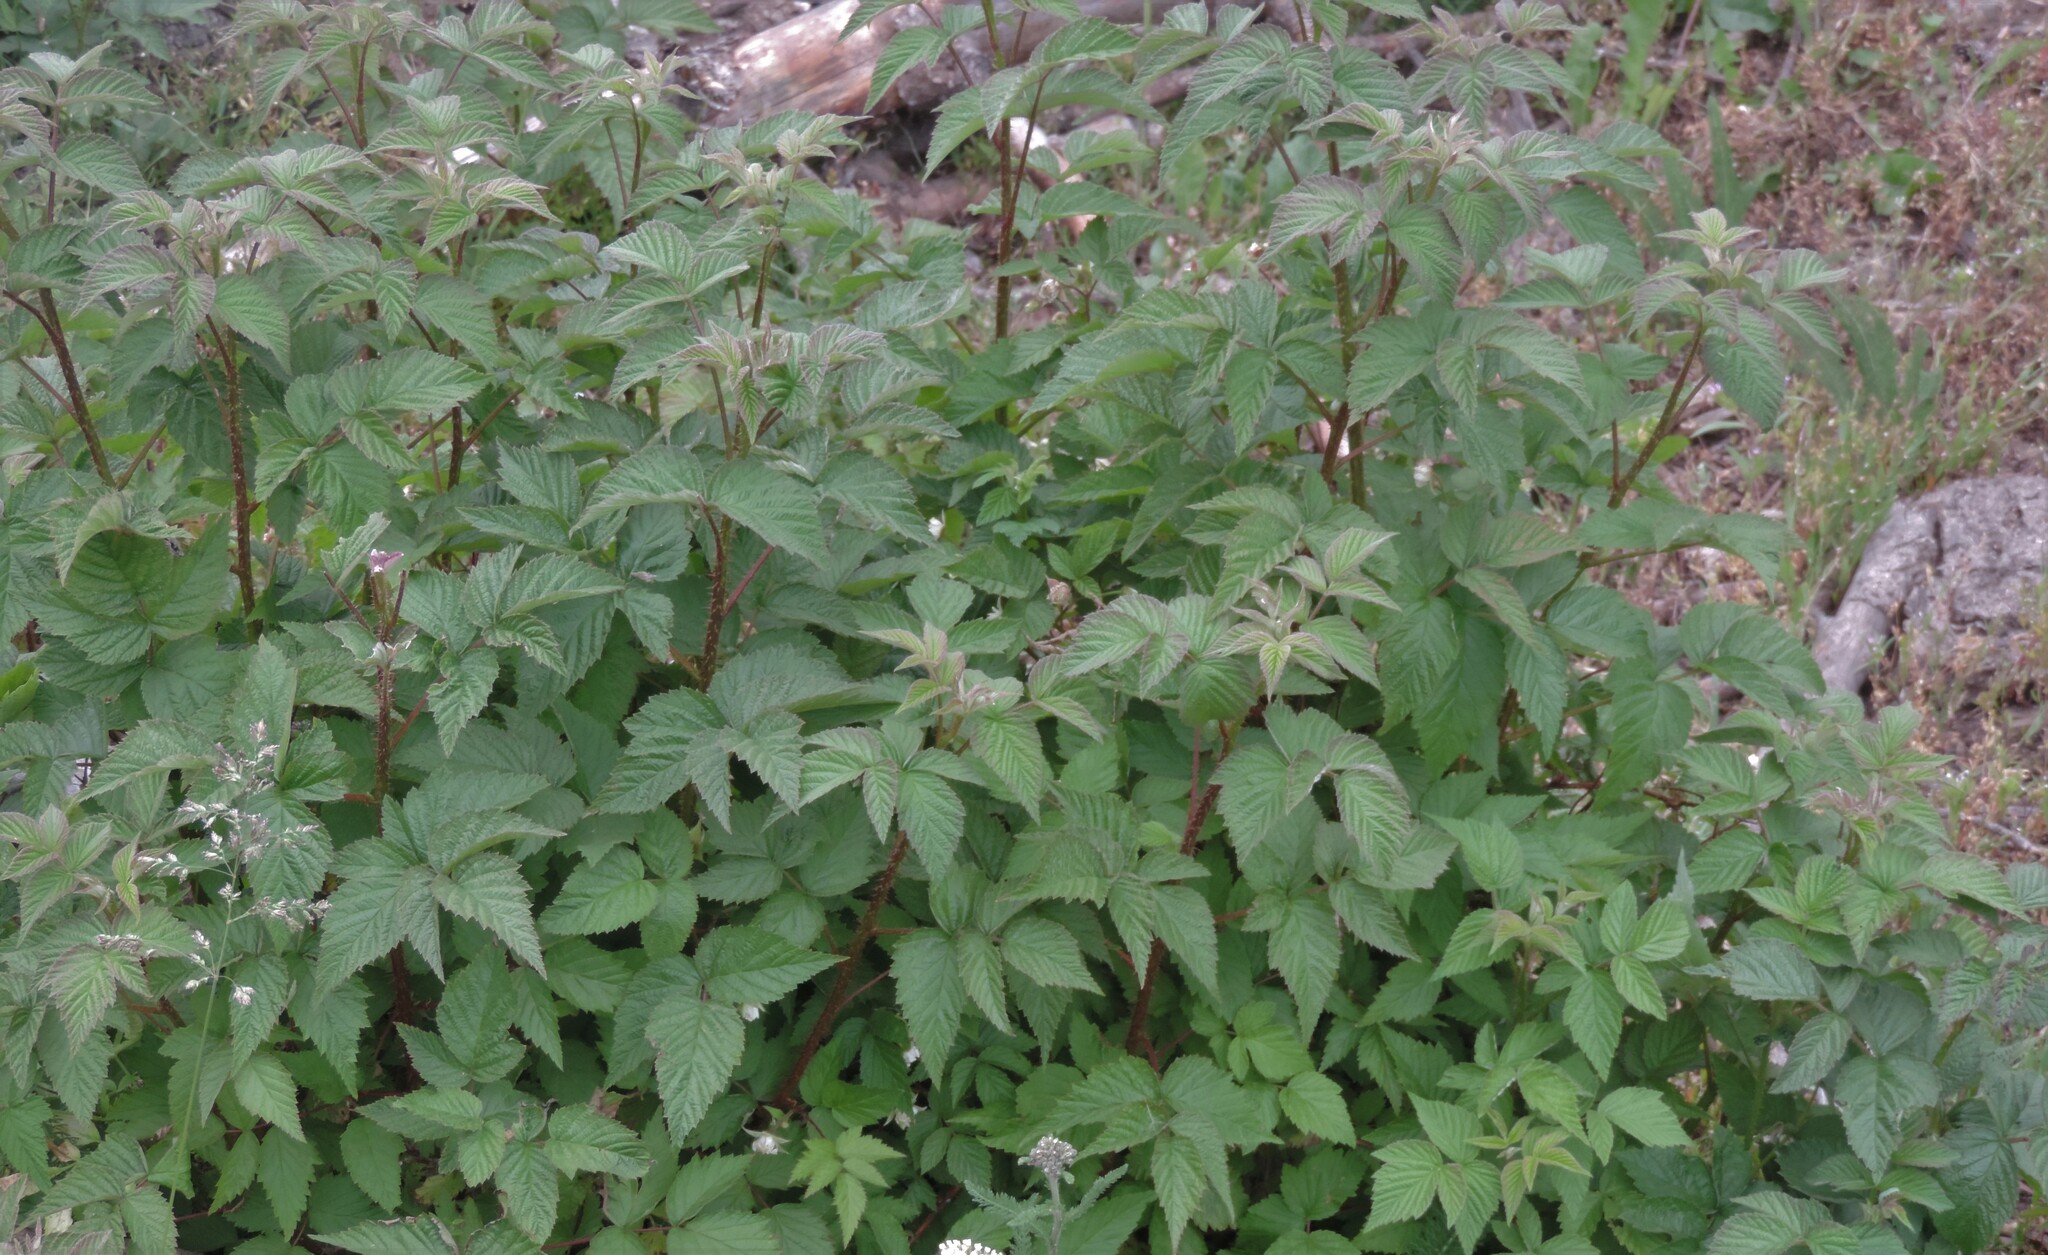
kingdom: Plantae
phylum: Tracheophyta
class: Magnoliopsida
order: Rosales
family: Rosaceae
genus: Rubus
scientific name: Rubus idaeus
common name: Raspberry
